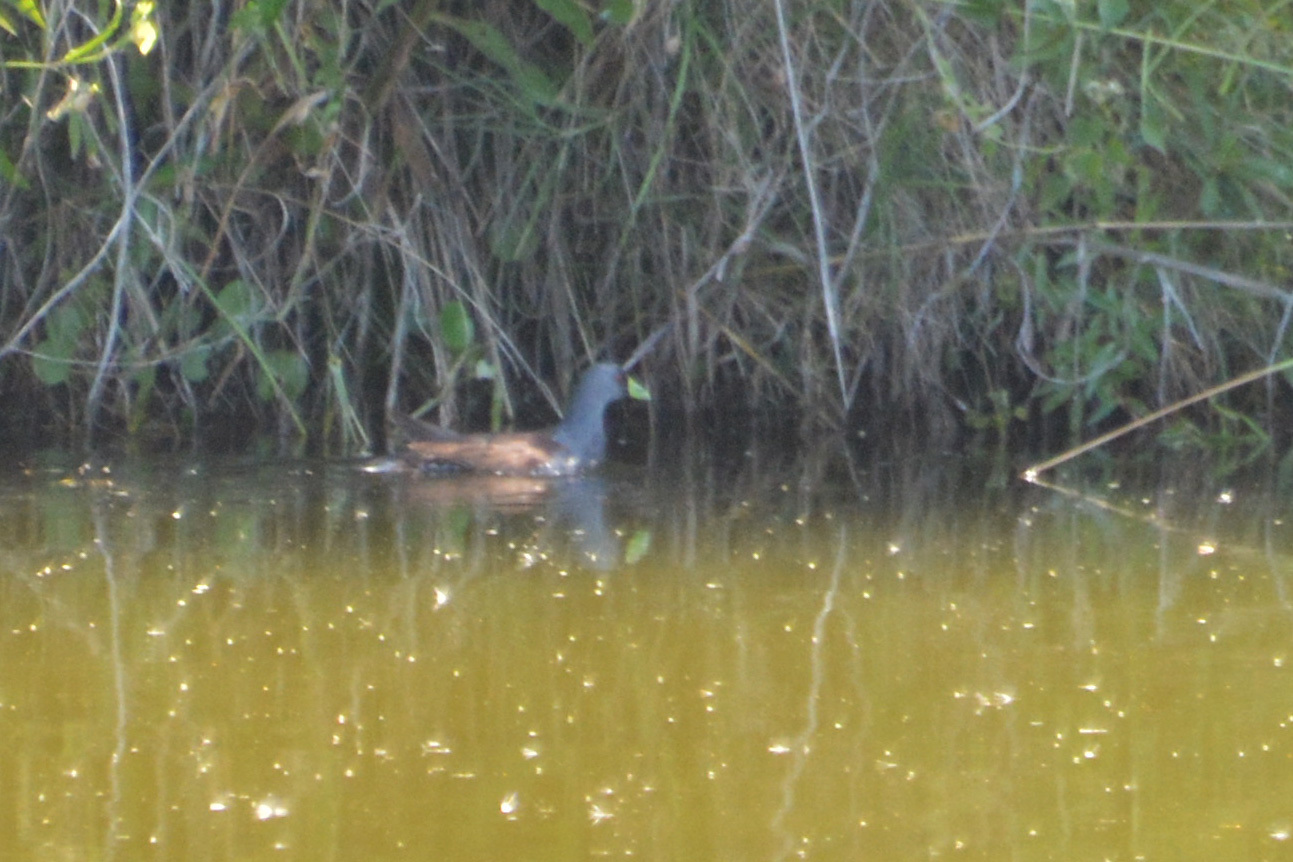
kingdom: Animalia
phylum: Chordata
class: Aves
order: Gruiformes
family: Rallidae
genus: Gallinula
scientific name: Gallinula melanops
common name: Spot-flanked gallinule
